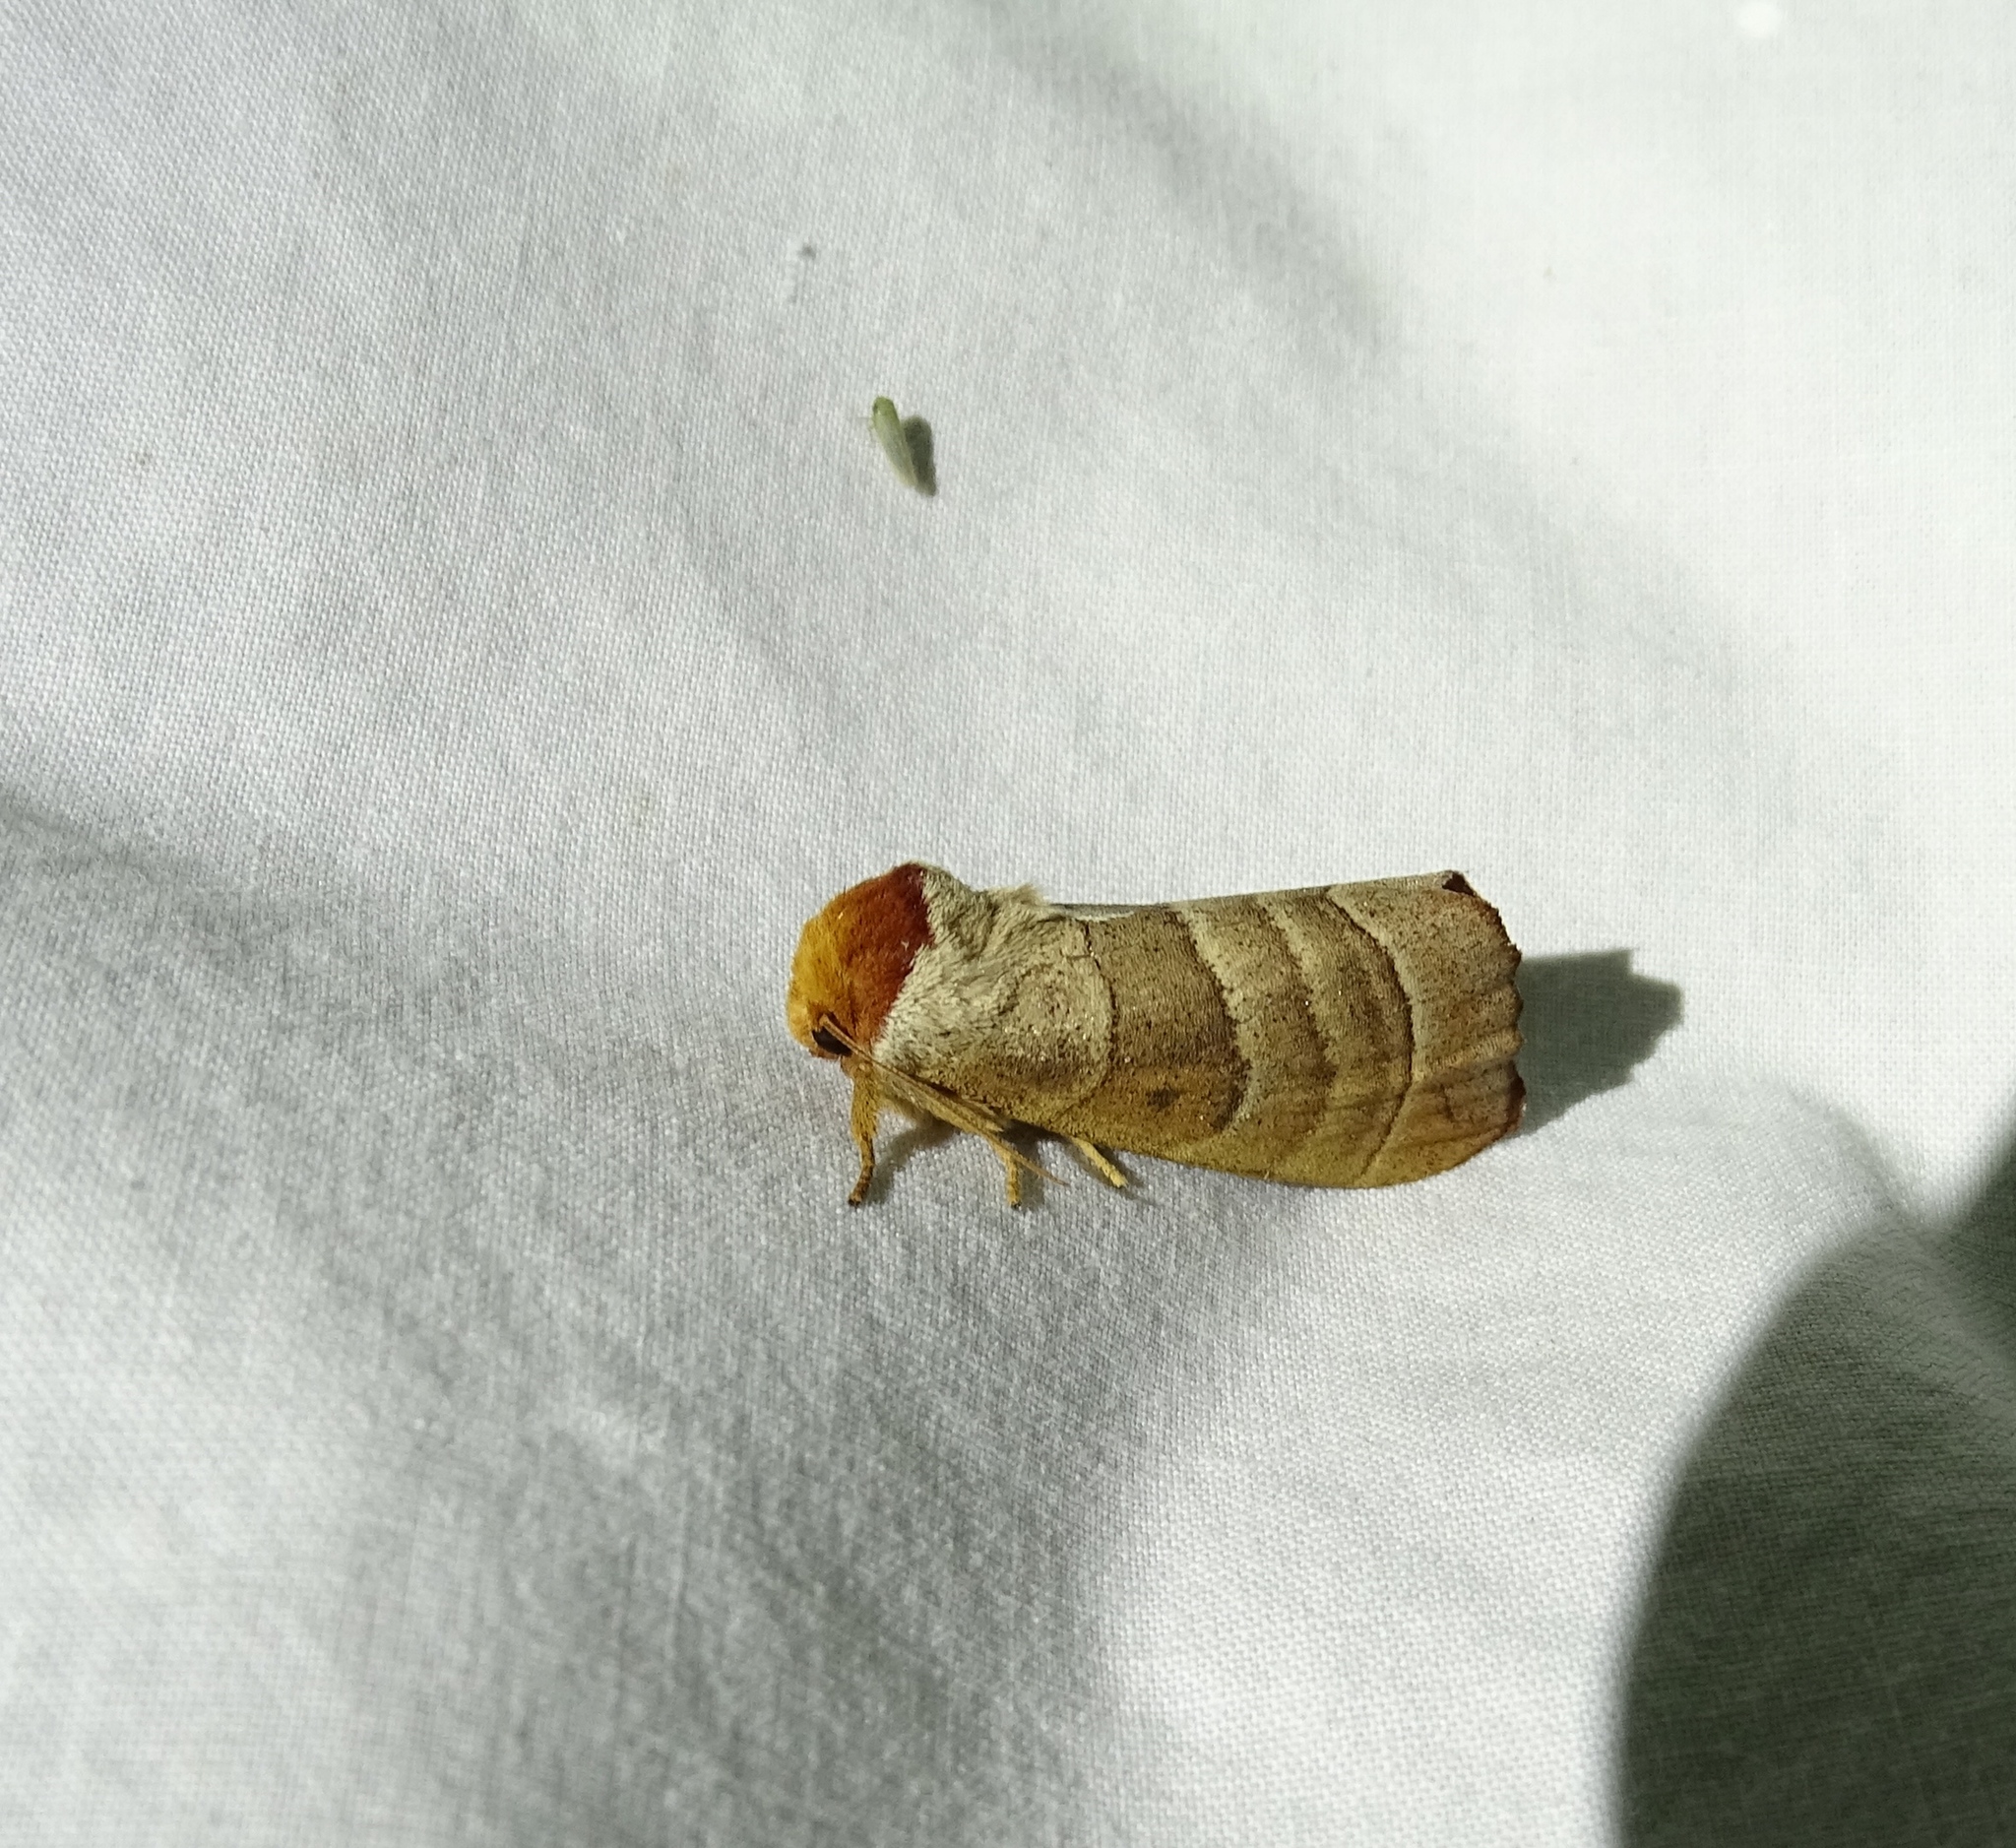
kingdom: Animalia
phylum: Arthropoda
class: Insecta
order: Lepidoptera
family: Notodontidae
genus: Datana
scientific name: Datana integerrima
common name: Walnut caterpillar
